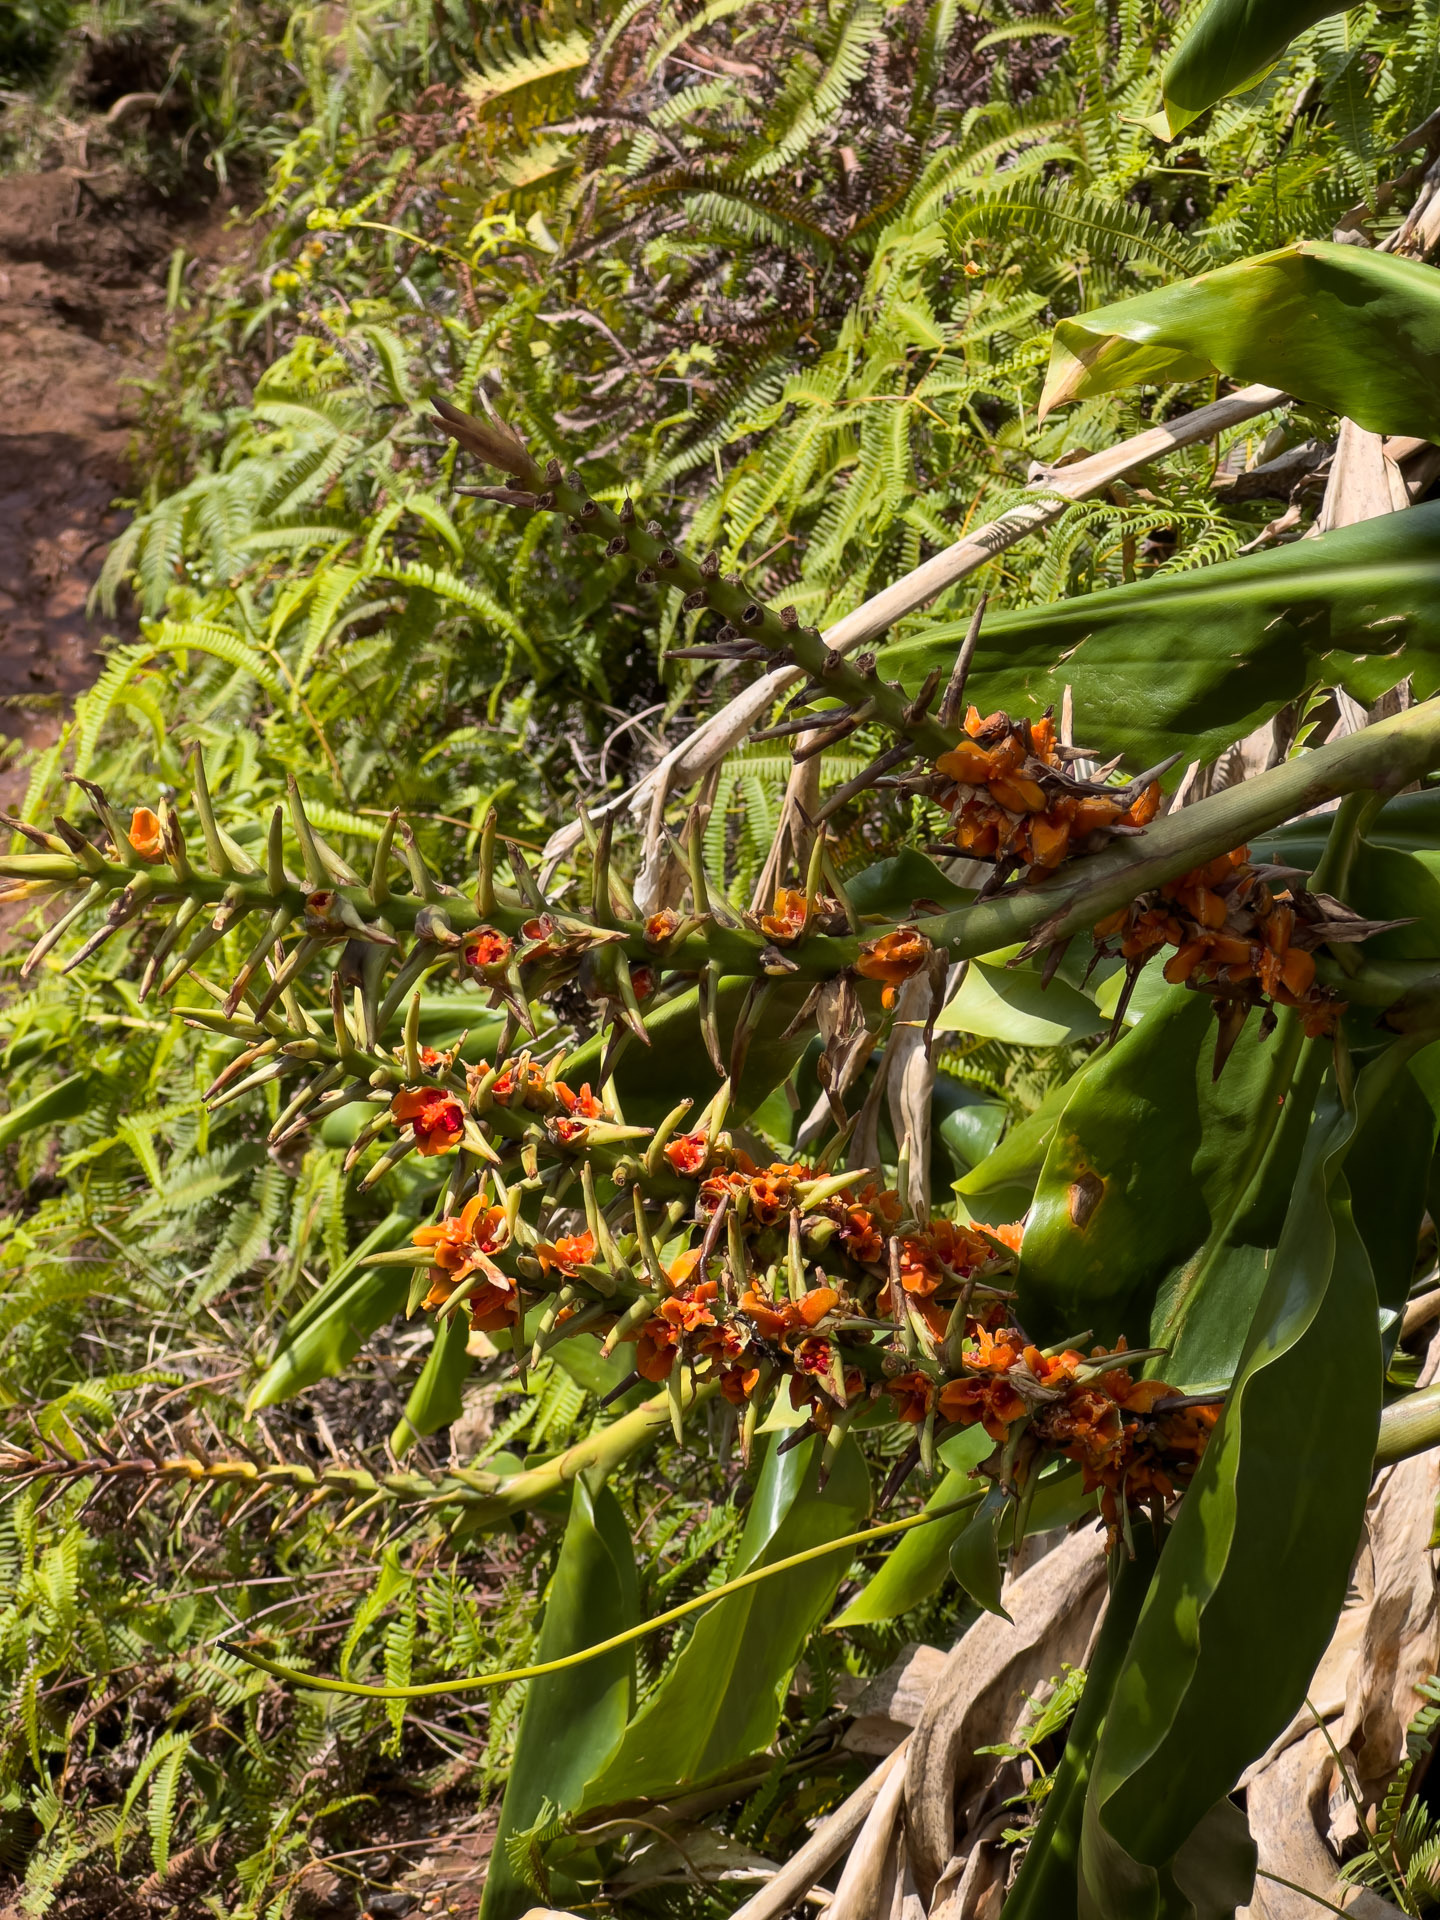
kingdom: Plantae
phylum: Tracheophyta
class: Liliopsida
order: Zingiberales
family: Zingiberaceae
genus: Hedychium
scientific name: Hedychium gardnerianum
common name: Himalayan ginger
